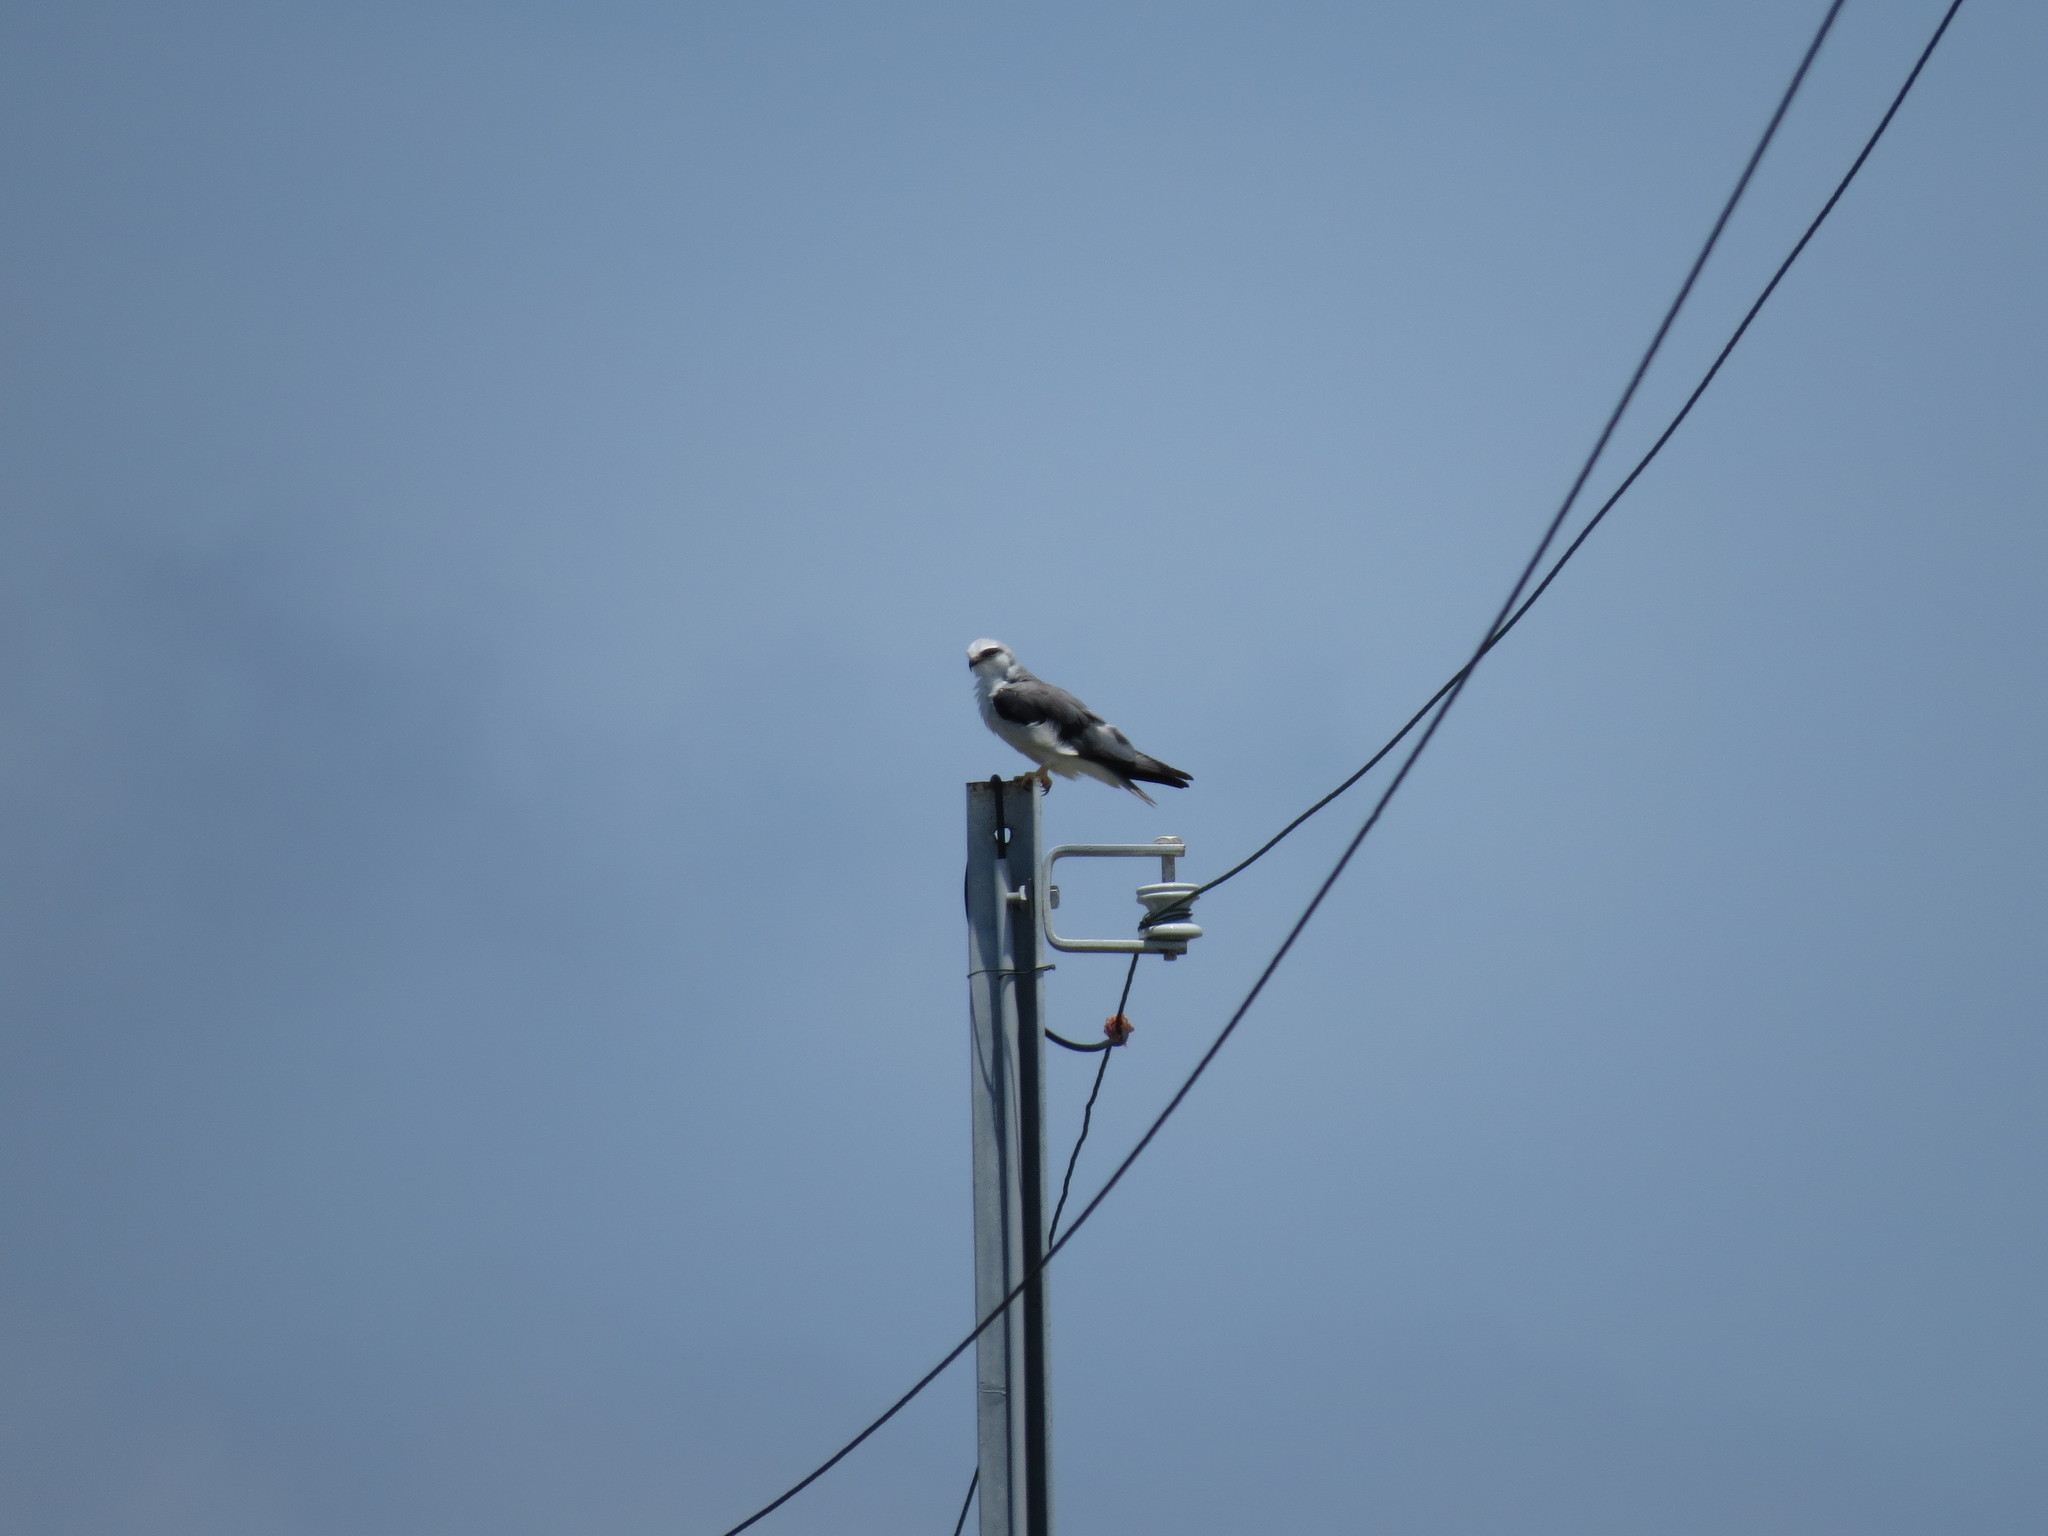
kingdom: Animalia
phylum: Chordata
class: Aves
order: Accipitriformes
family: Accipitridae
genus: Elanus
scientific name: Elanus caeruleus
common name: Black-winged kite
